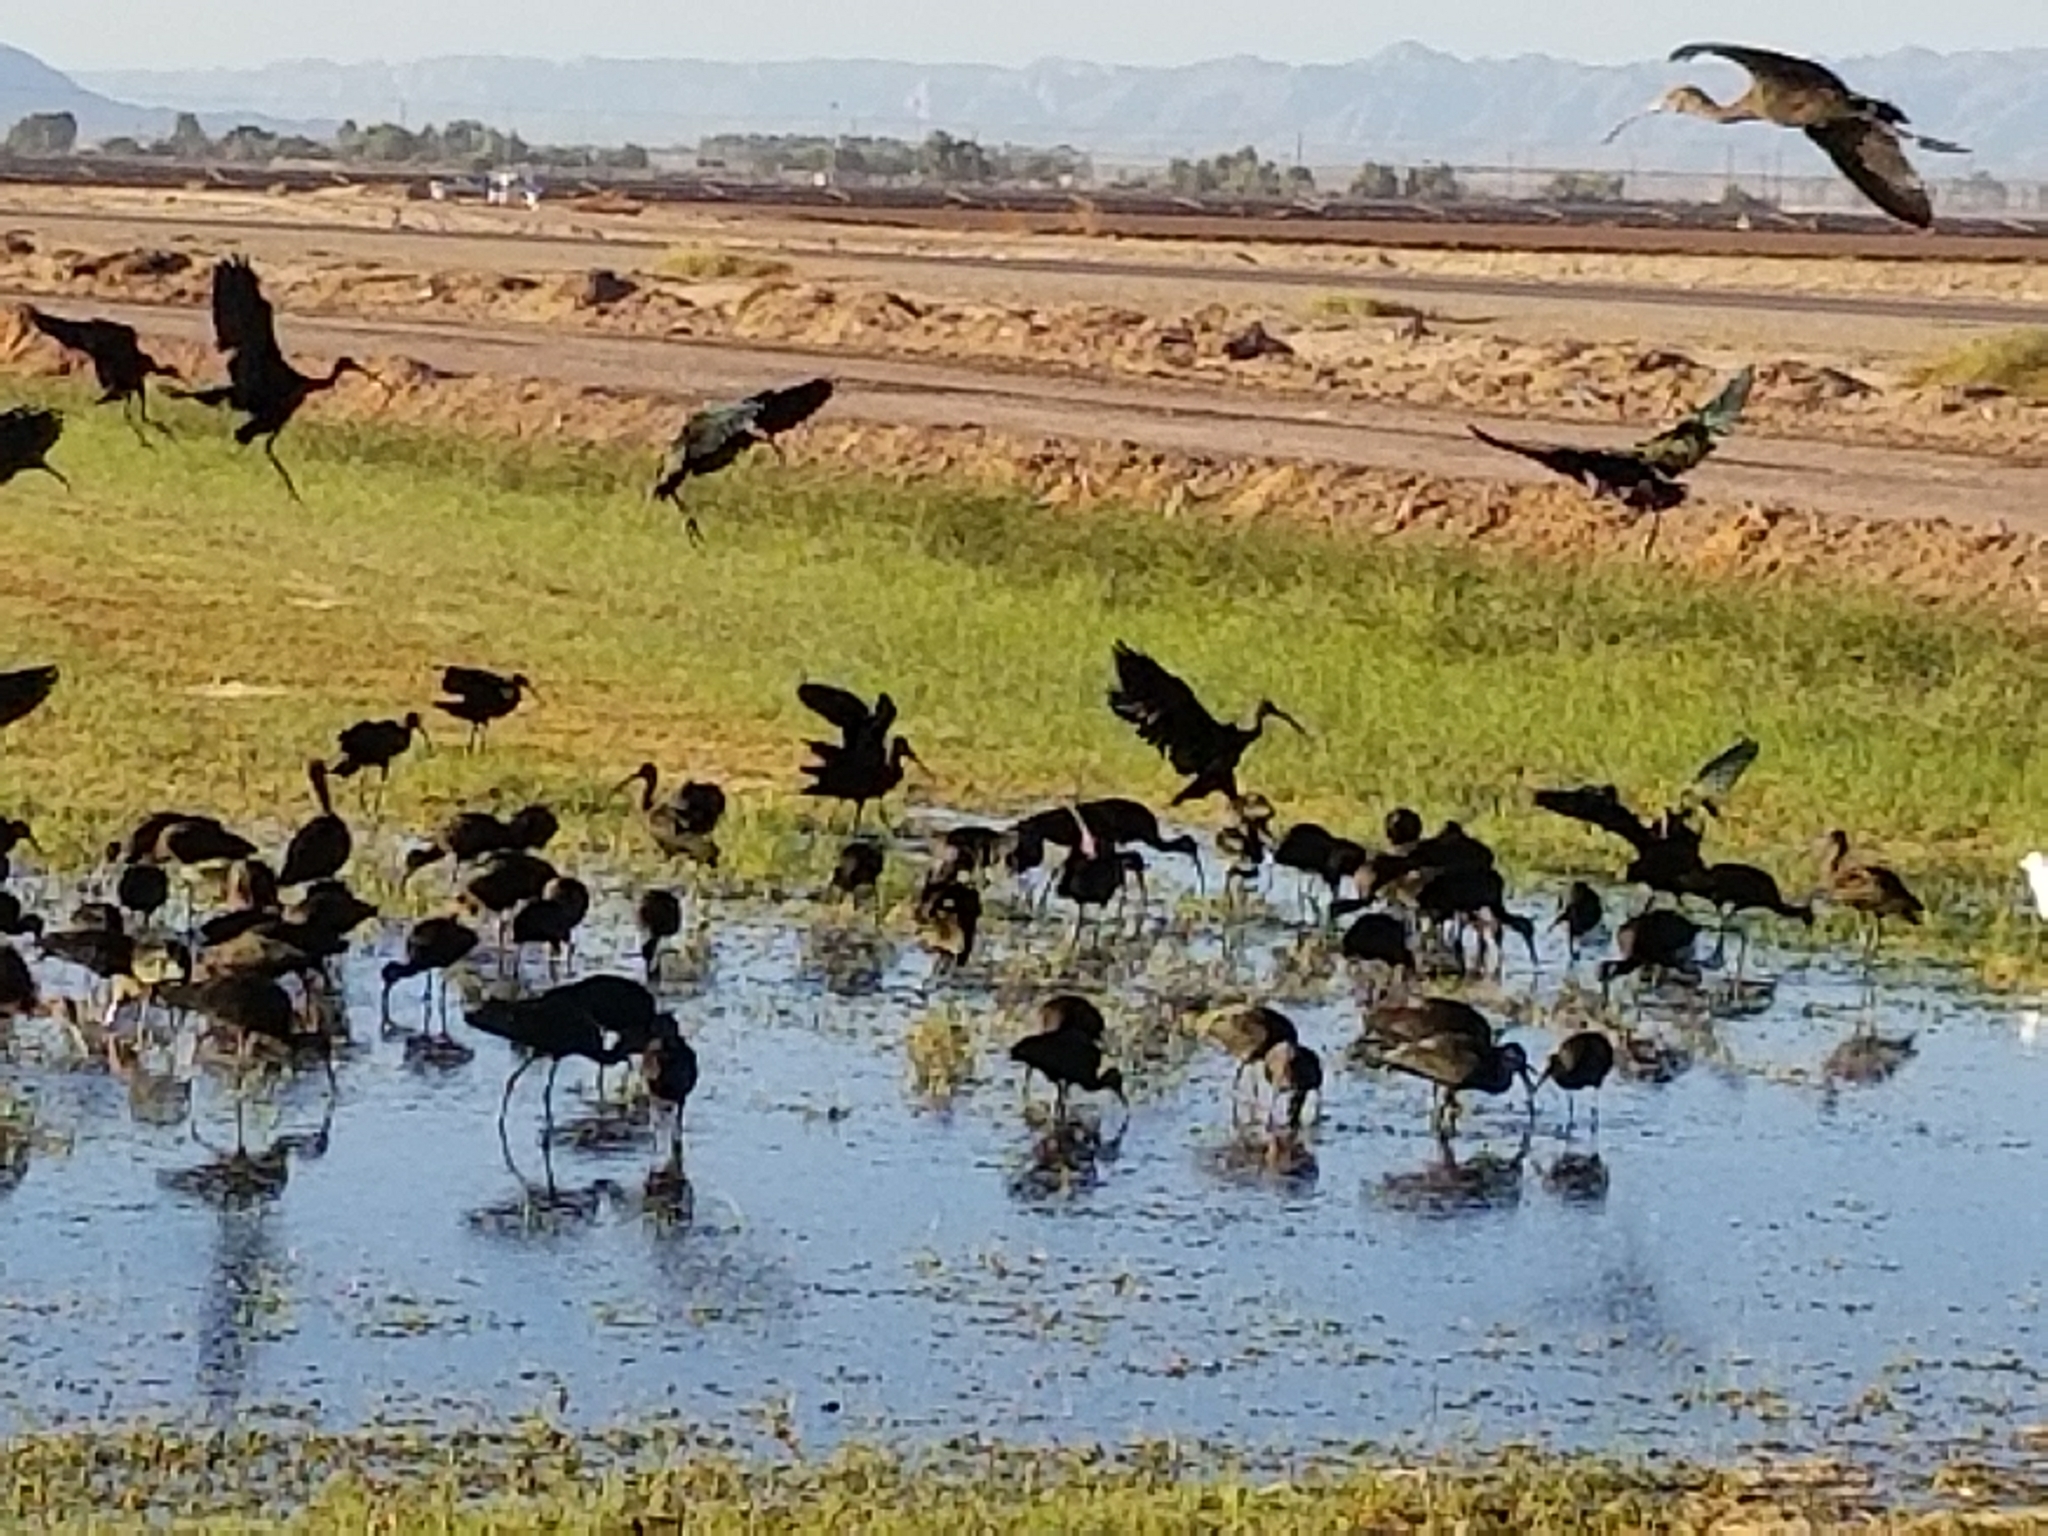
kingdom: Animalia
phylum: Chordata
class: Aves
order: Pelecaniformes
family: Threskiornithidae
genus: Plegadis
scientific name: Plegadis chihi
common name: White-faced ibis
